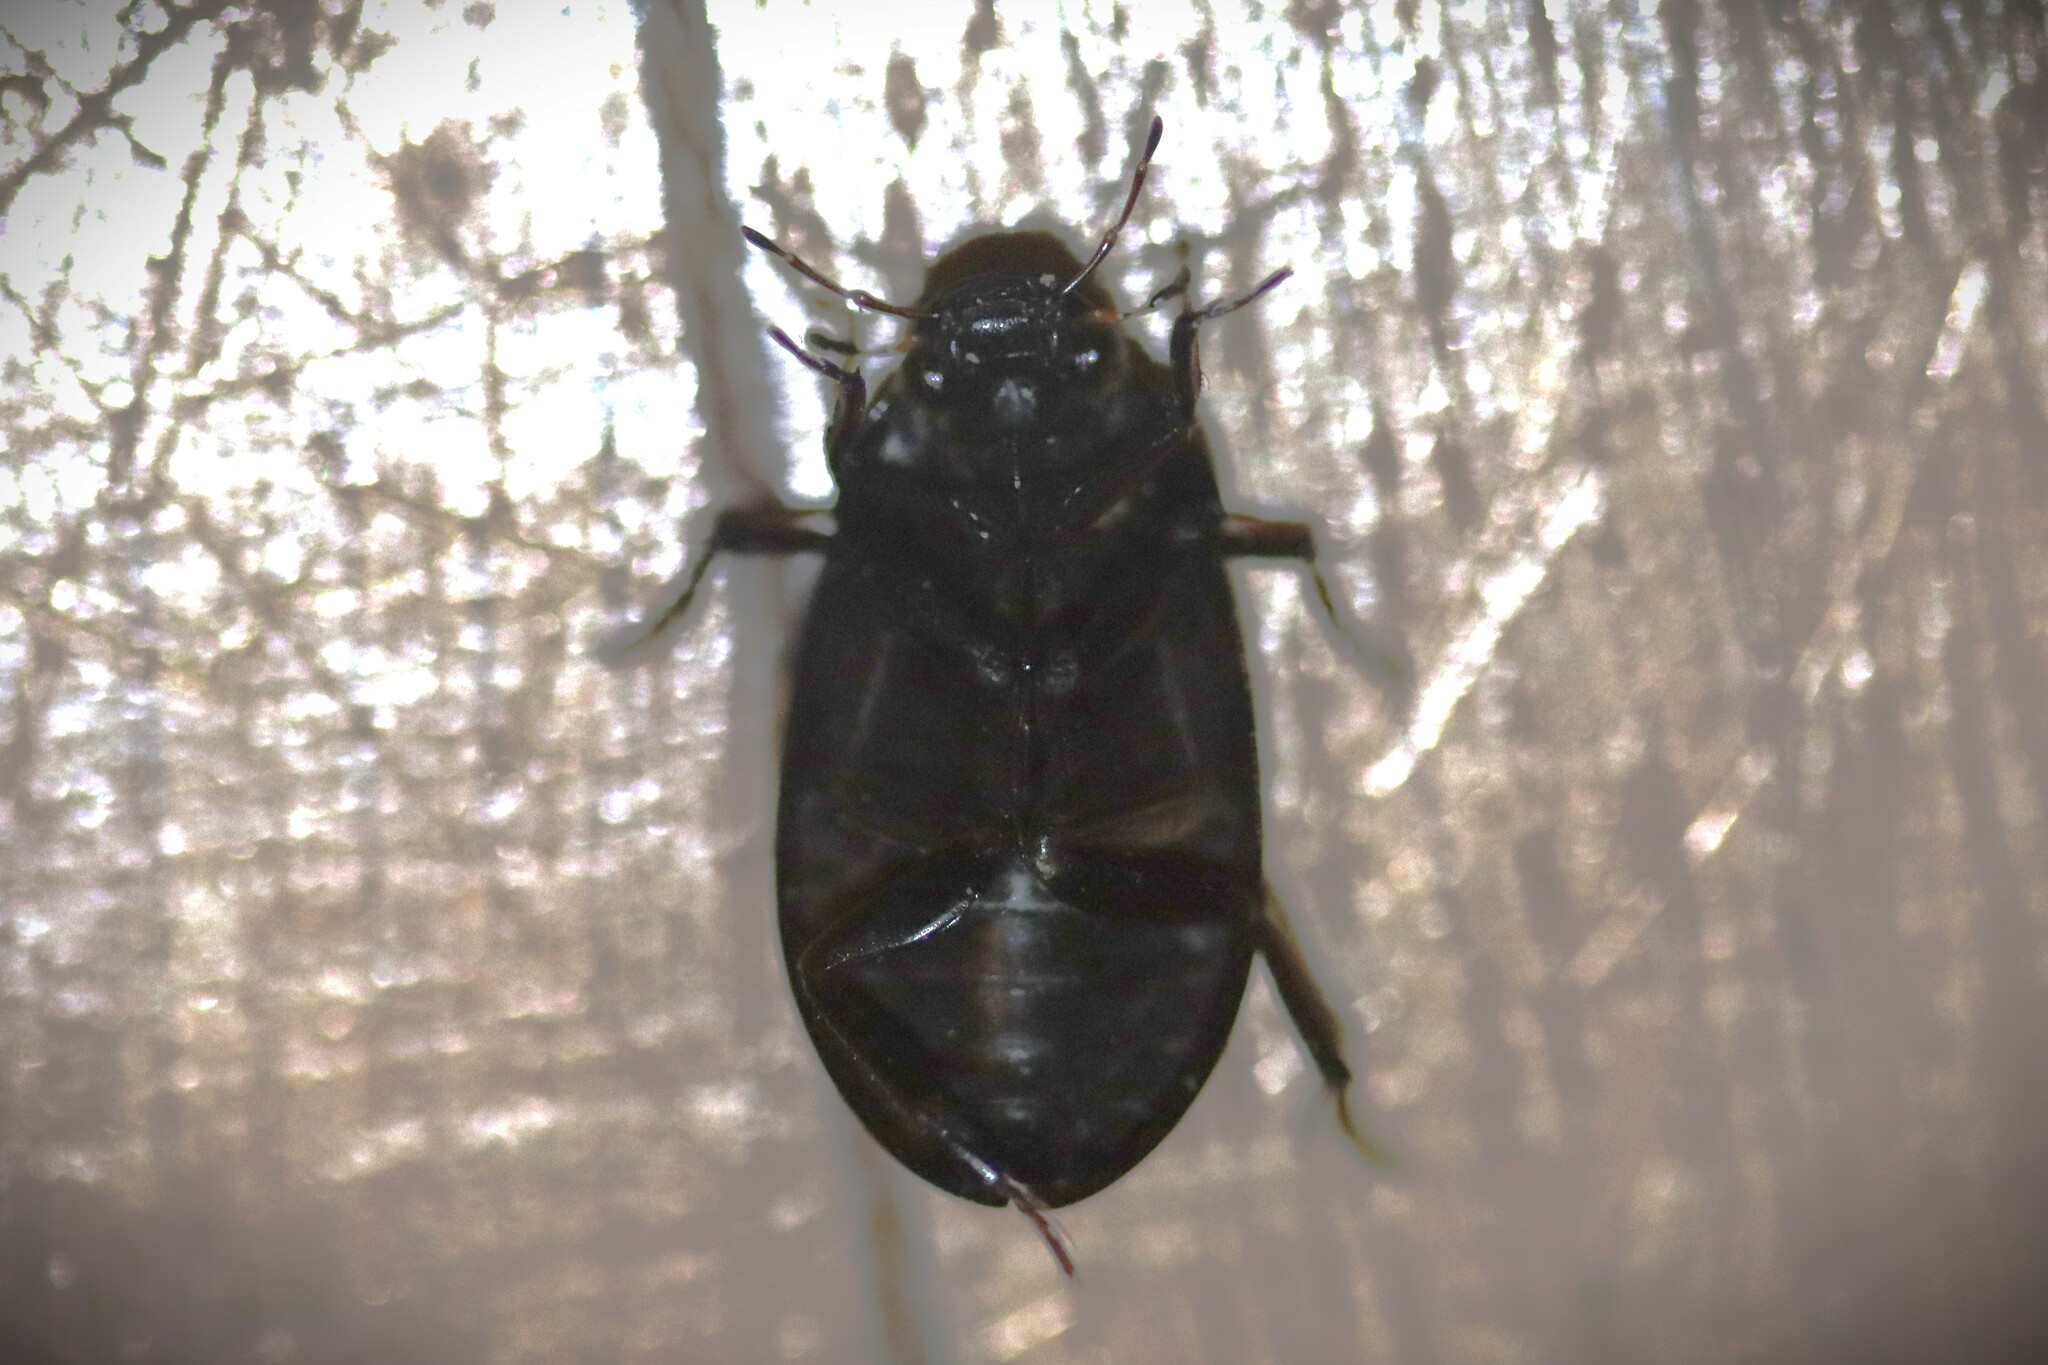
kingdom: Animalia
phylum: Arthropoda
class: Insecta
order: Coleoptera
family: Hydrophilidae
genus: Hydrochara
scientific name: Hydrochara caraboides
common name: Lesser silver water beetle
